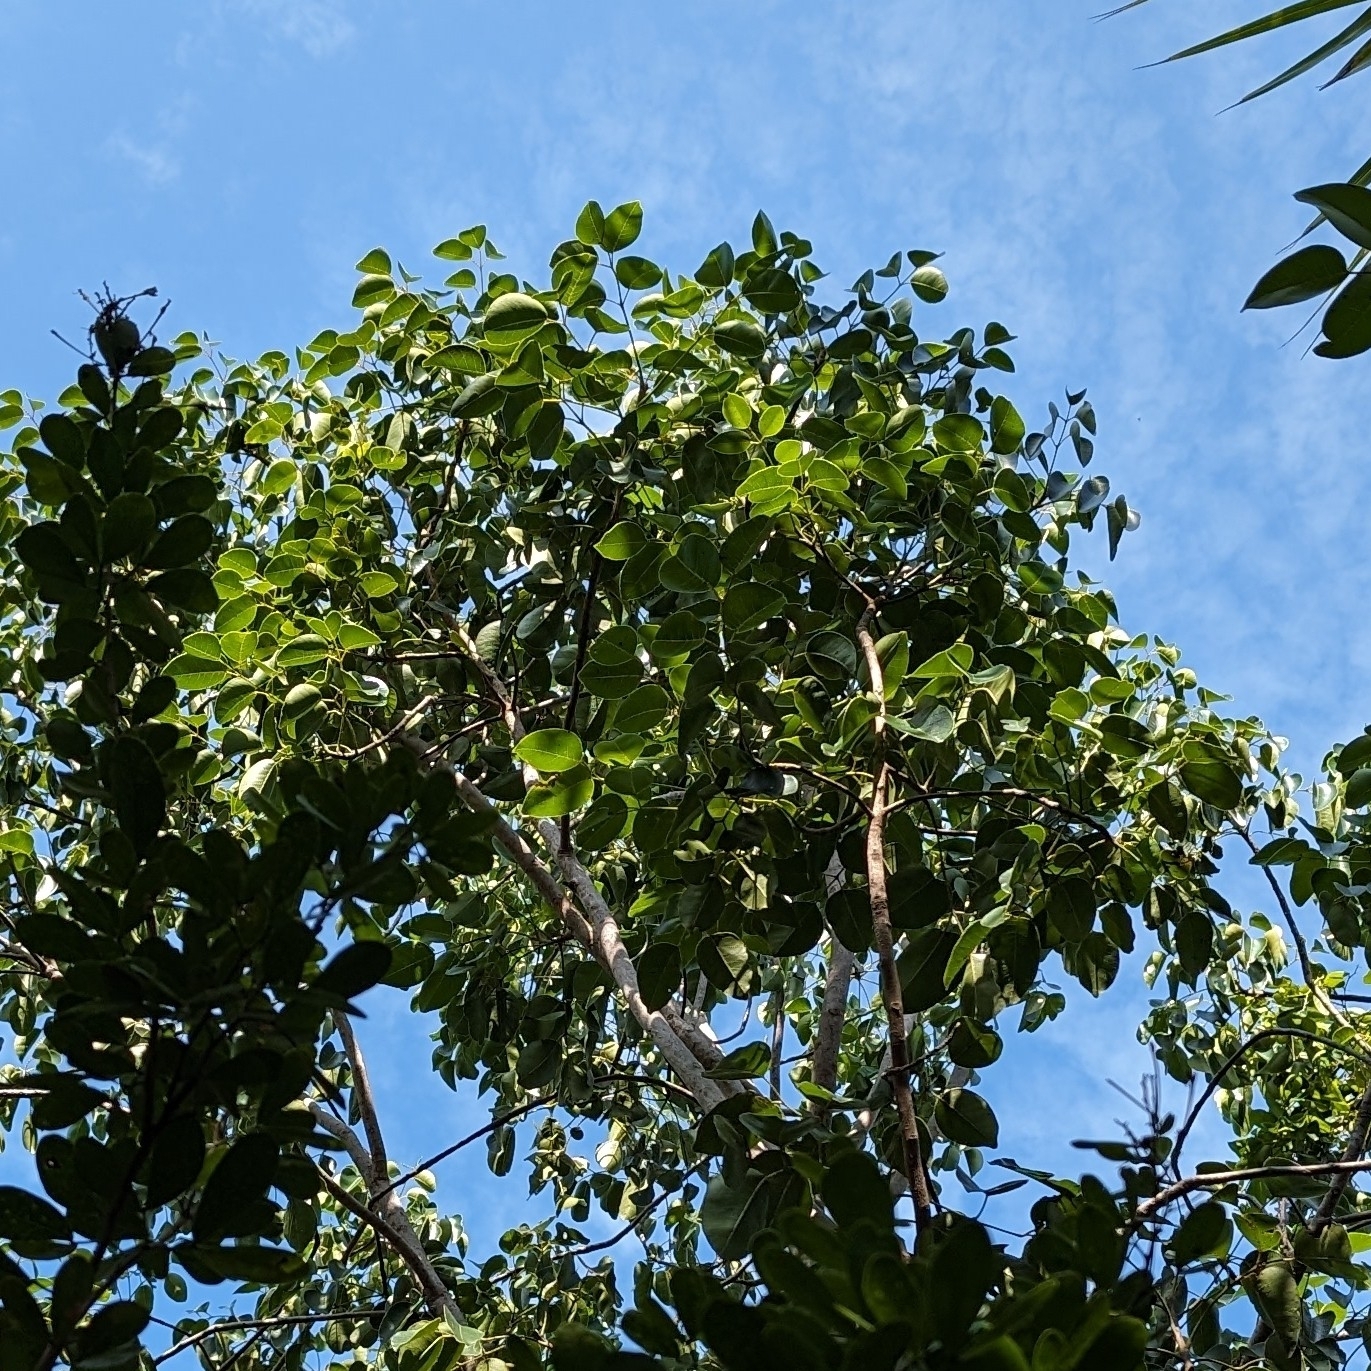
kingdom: Plantae
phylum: Tracheophyta
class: Magnoliopsida
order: Sapindales
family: Anacardiaceae
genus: Metopium
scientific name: Metopium toxiferum
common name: Florida poisontree
